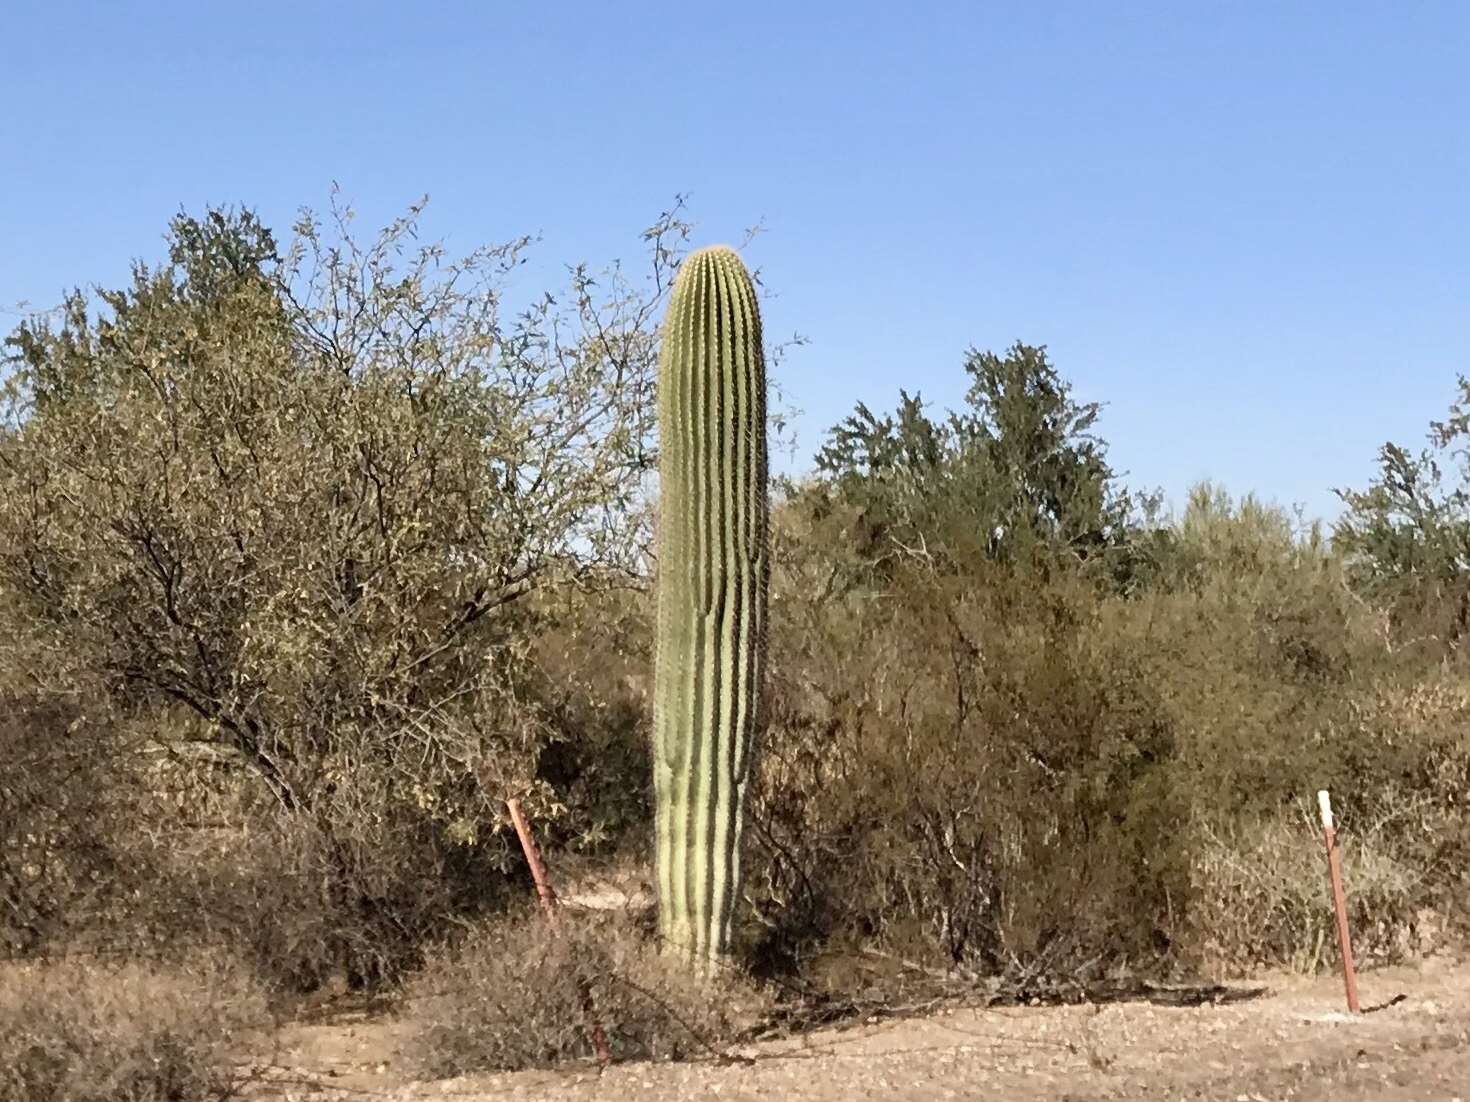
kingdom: Plantae
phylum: Tracheophyta
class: Magnoliopsida
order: Caryophyllales
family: Cactaceae
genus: Carnegiea
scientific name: Carnegiea gigantea
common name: Saguaro
